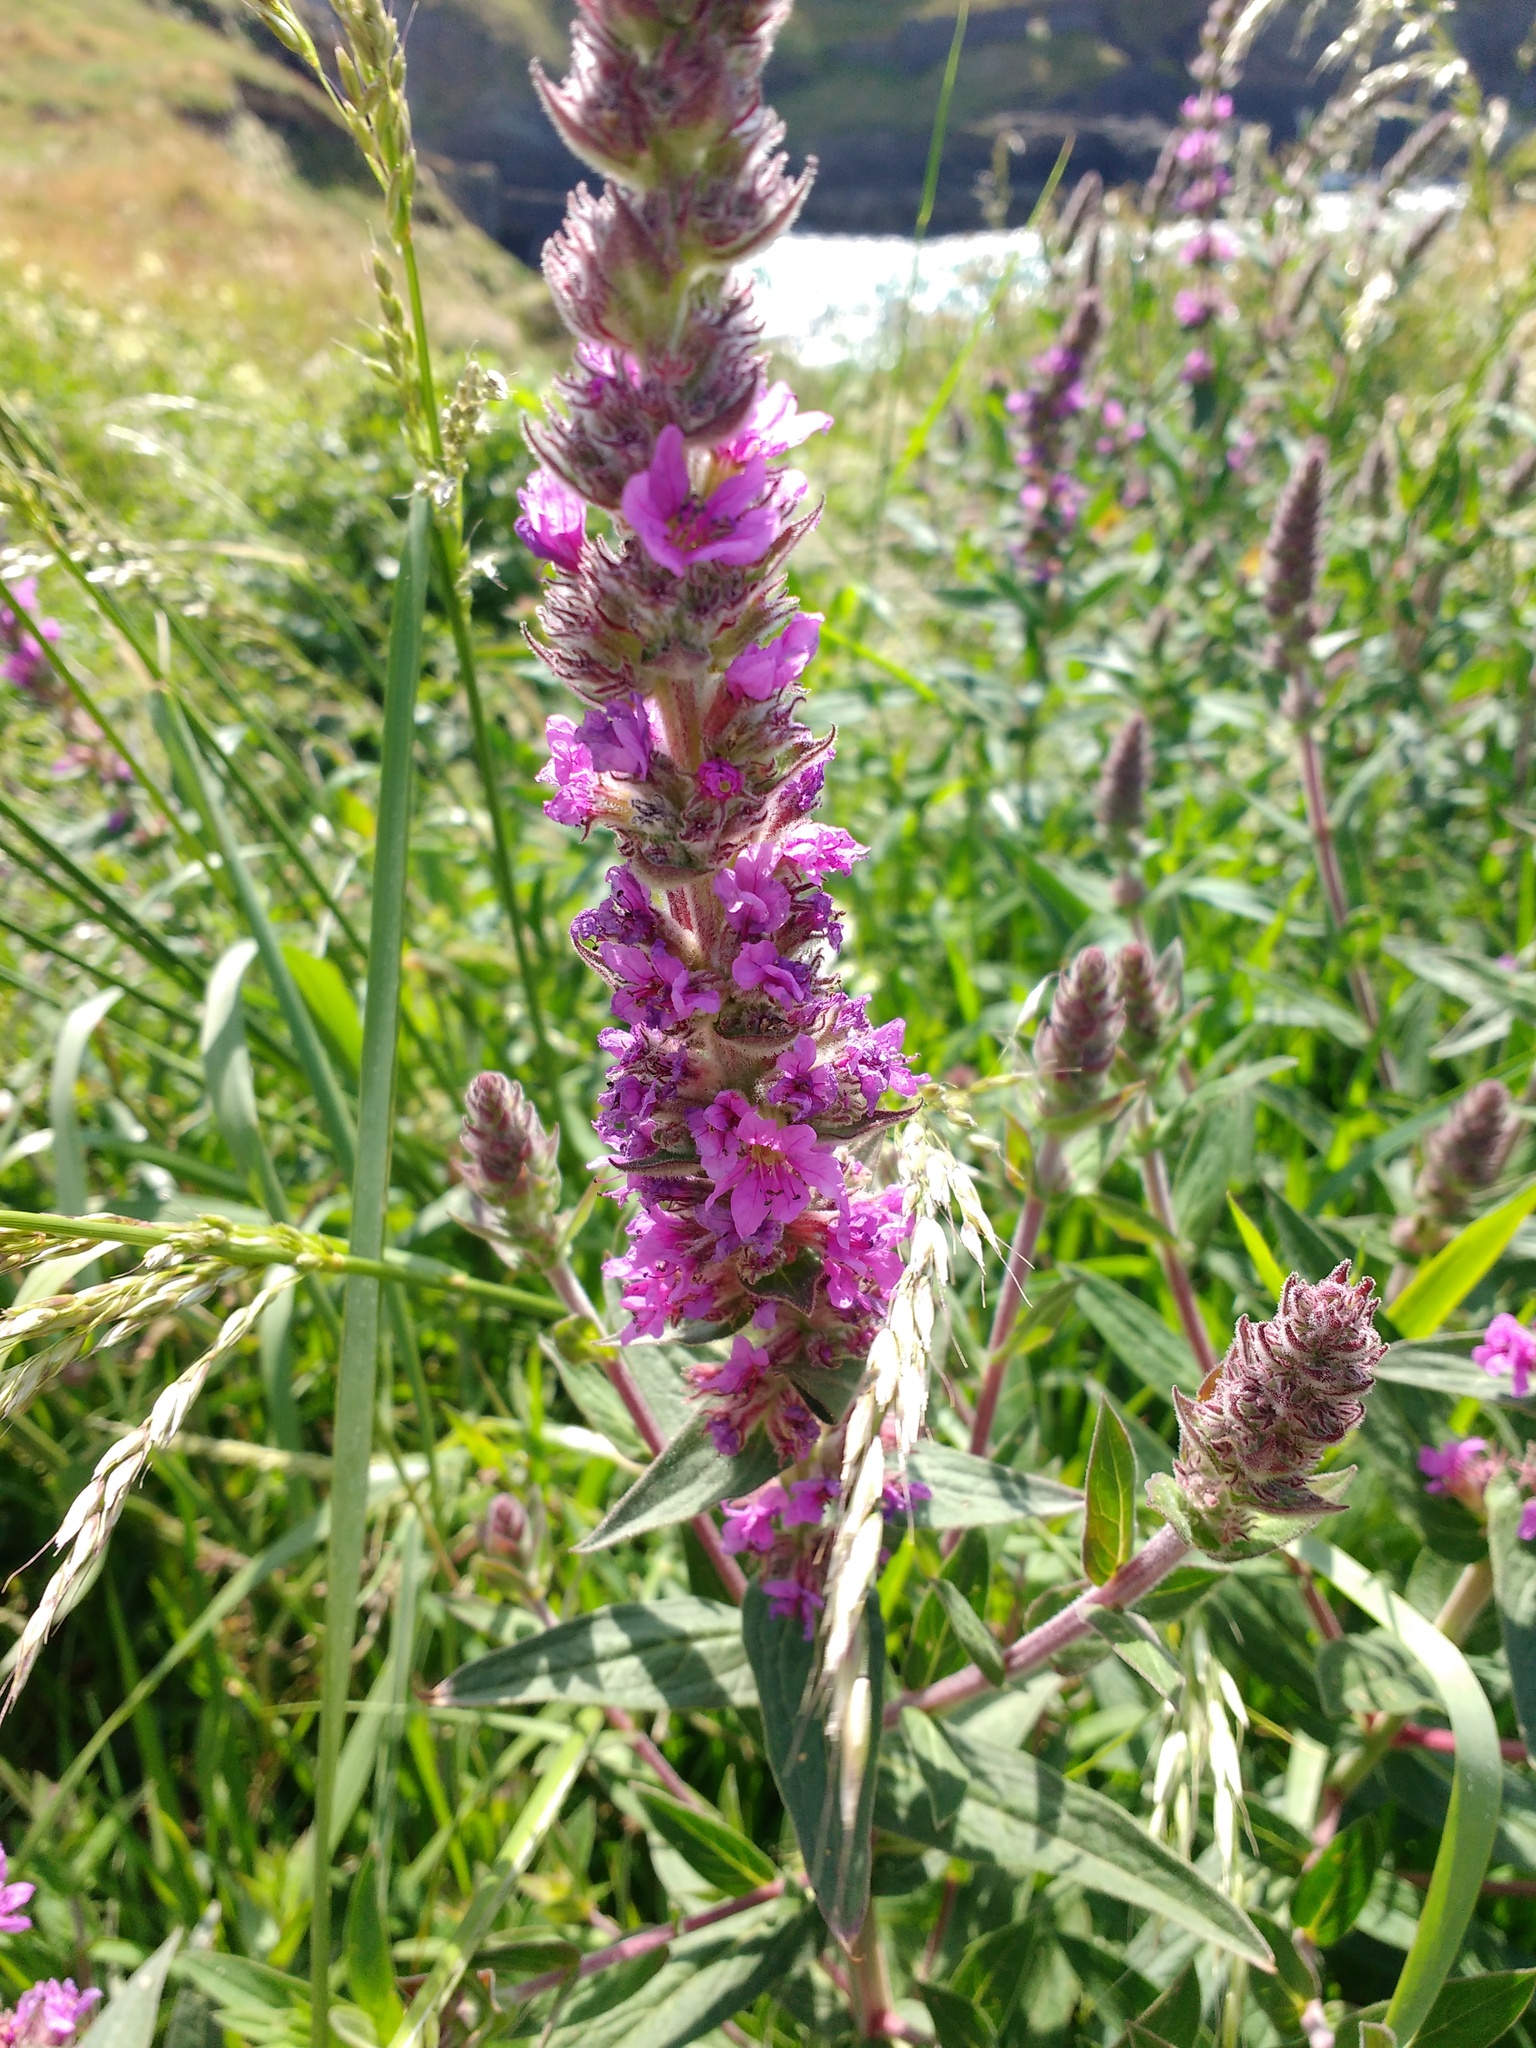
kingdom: Plantae
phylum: Tracheophyta
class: Magnoliopsida
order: Myrtales
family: Lythraceae
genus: Lythrum
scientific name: Lythrum salicaria
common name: Purple loosestrife
